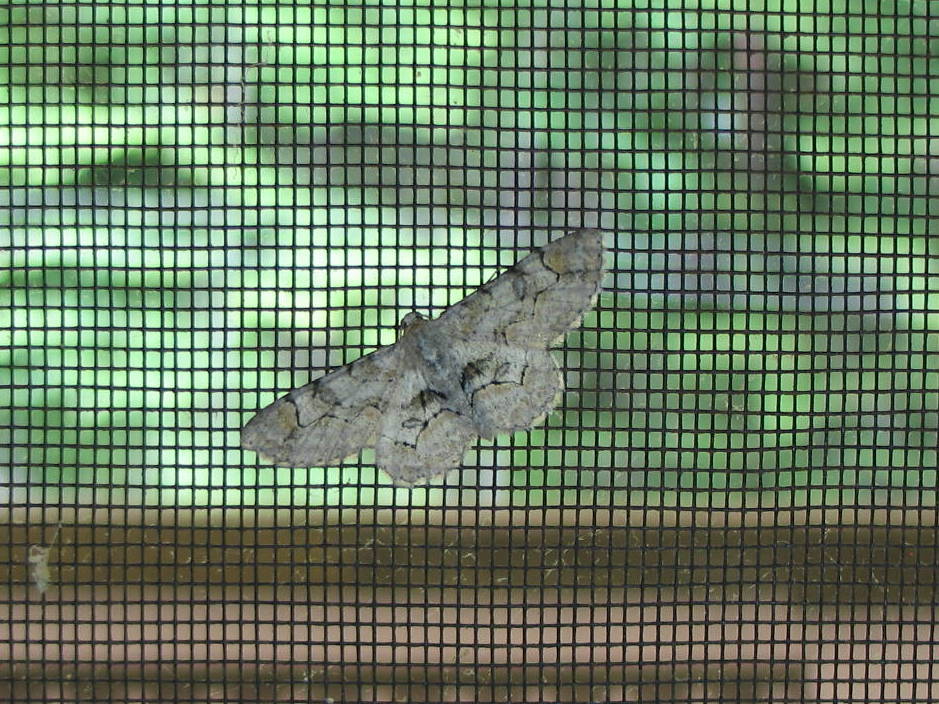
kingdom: Animalia
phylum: Arthropoda
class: Insecta
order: Lepidoptera
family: Geometridae
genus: Iridopsis
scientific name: Iridopsis larvaria
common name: Bent-line gray
